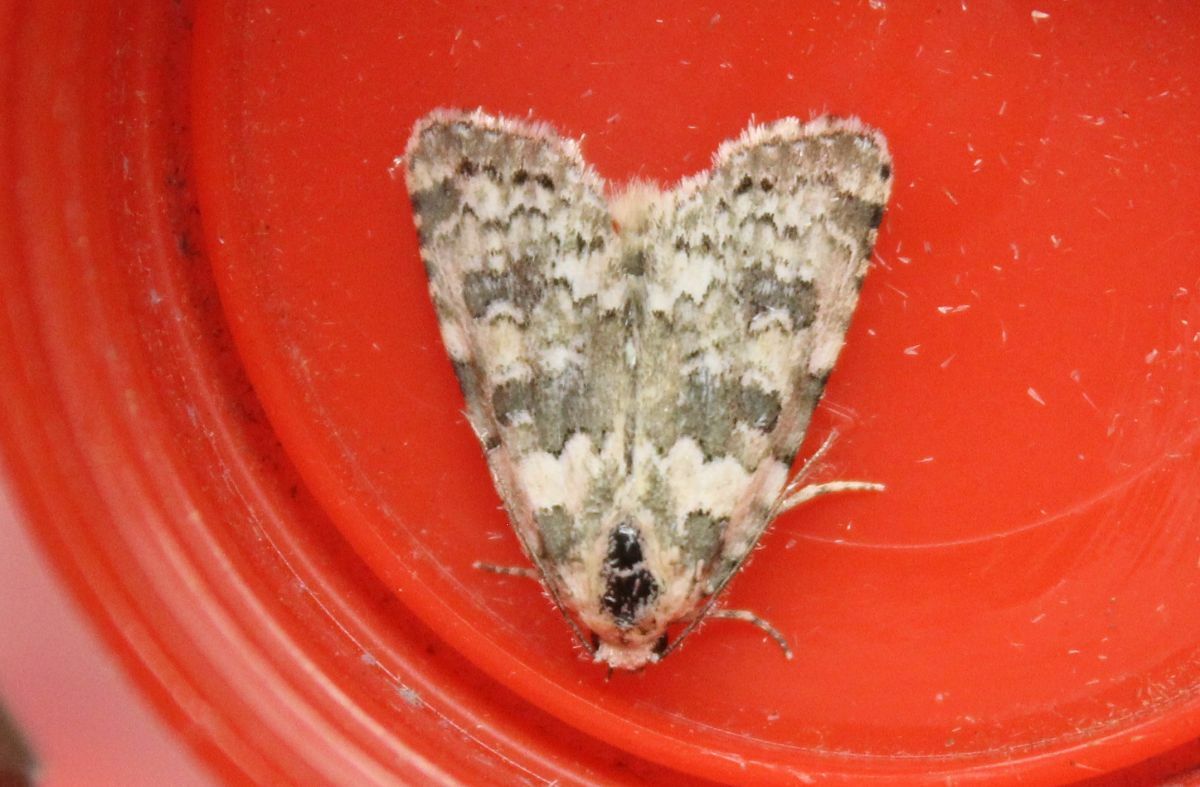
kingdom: Animalia
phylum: Arthropoda
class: Insecta
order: Lepidoptera
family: Noctuidae
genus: Bryophila
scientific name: Bryophila domestica
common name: Marbled beauty
